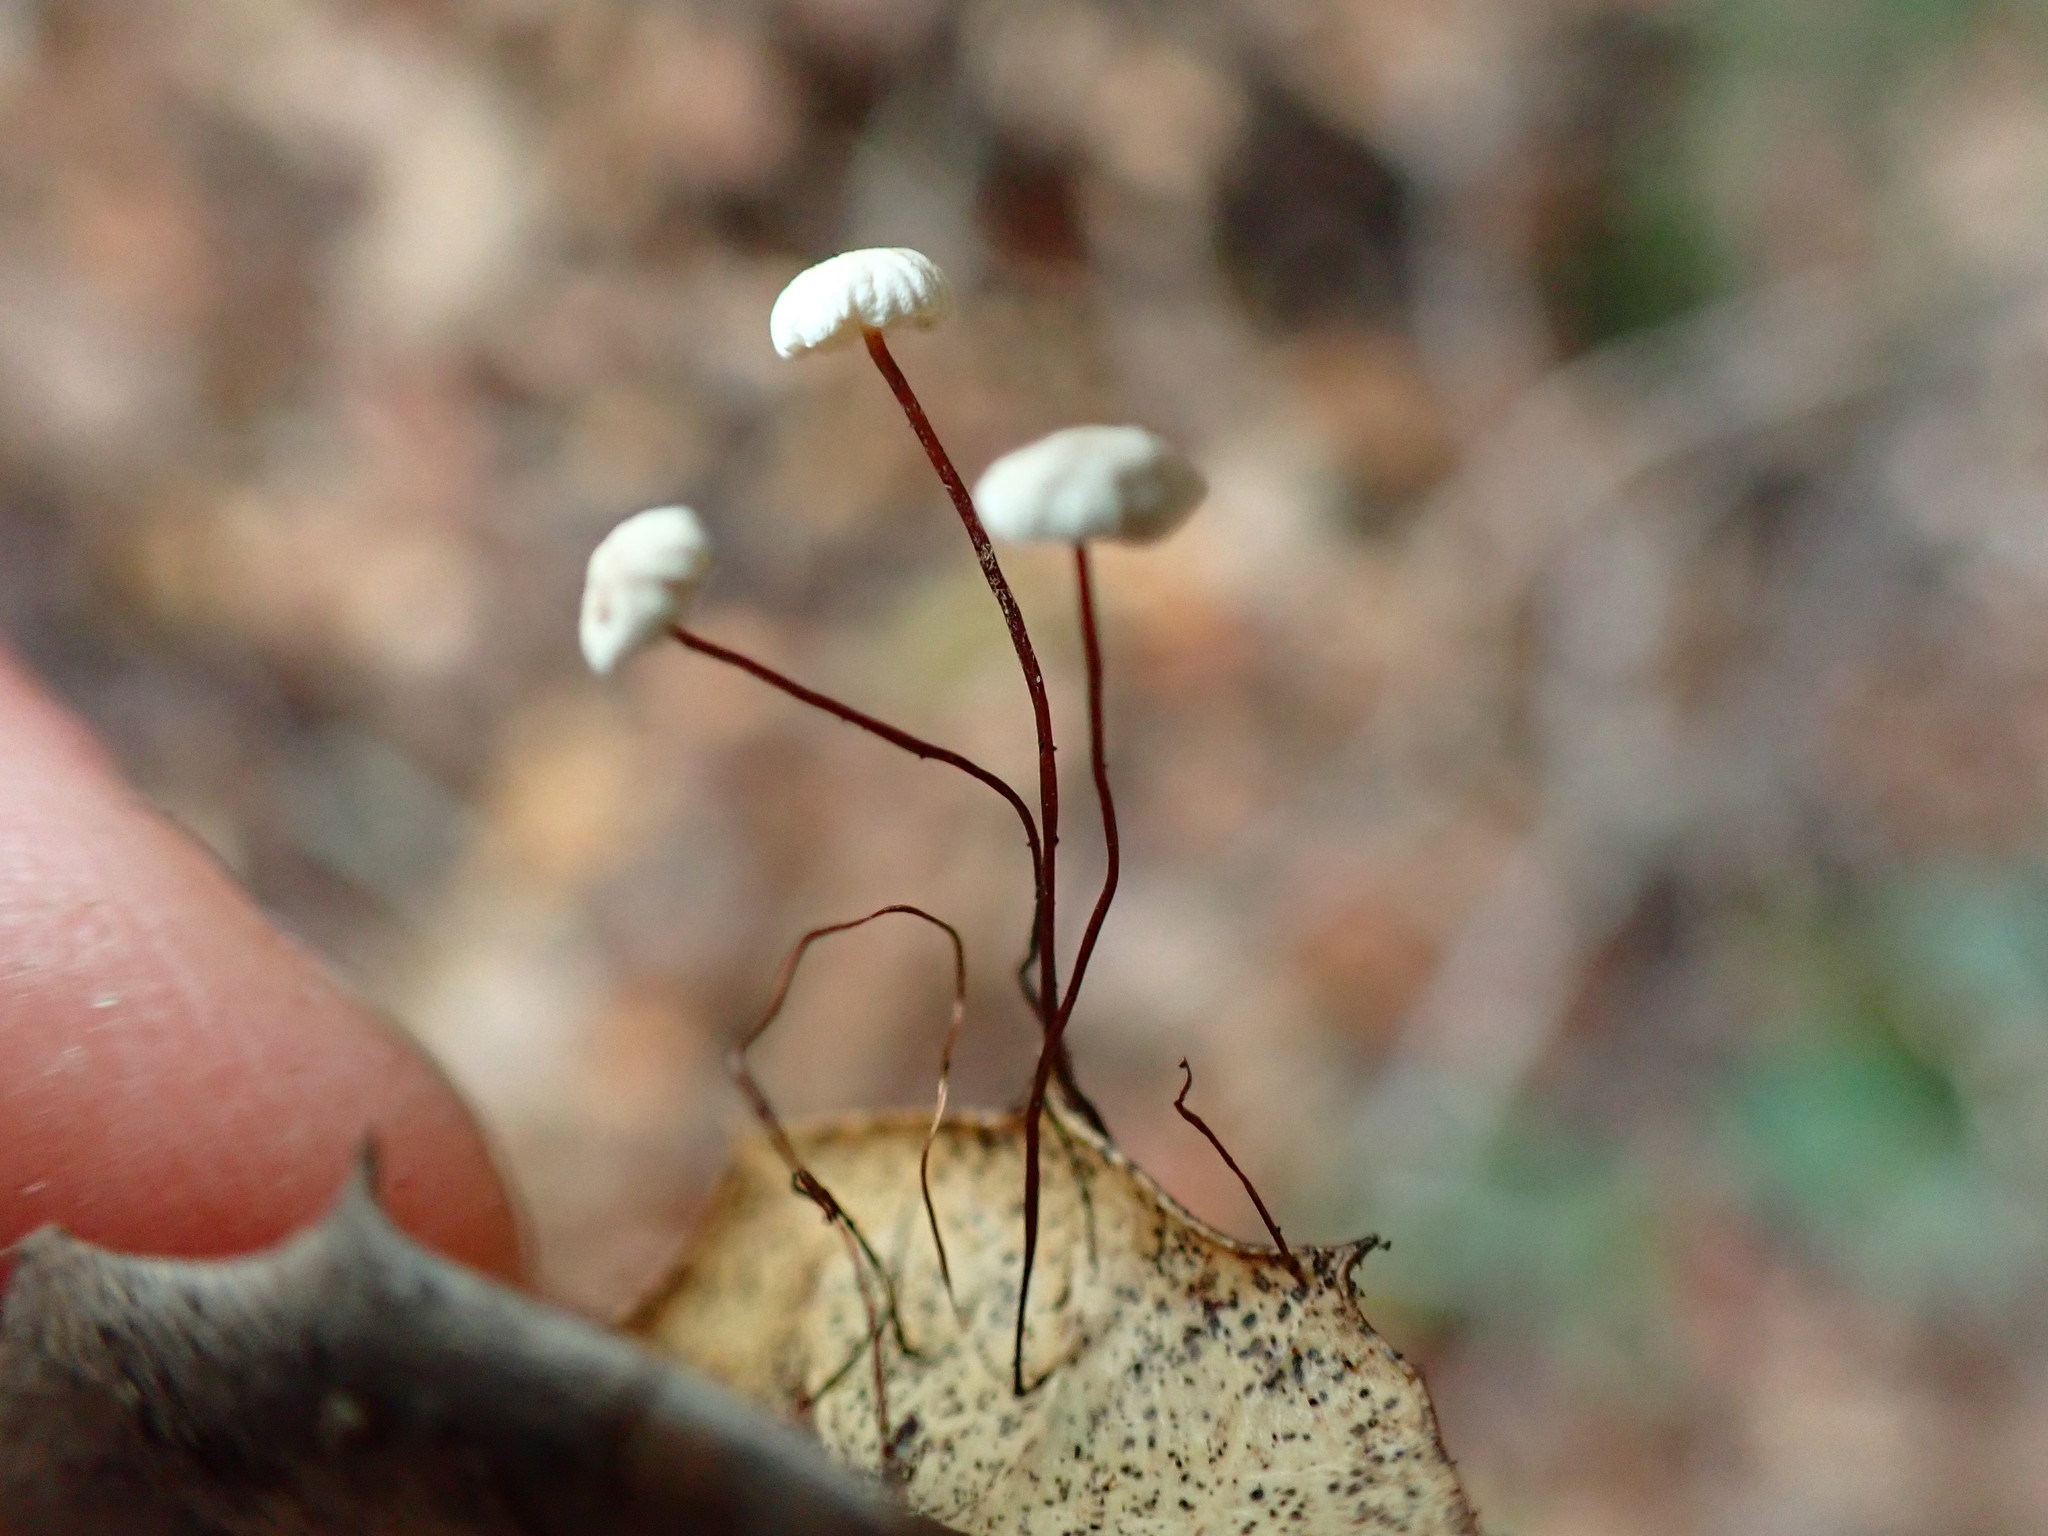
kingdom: Fungi
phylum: Basidiomycota
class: Agaricomycetes
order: Agaricales
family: Omphalotaceae
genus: Collybiopsis
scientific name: Collybiopsis quercophila
